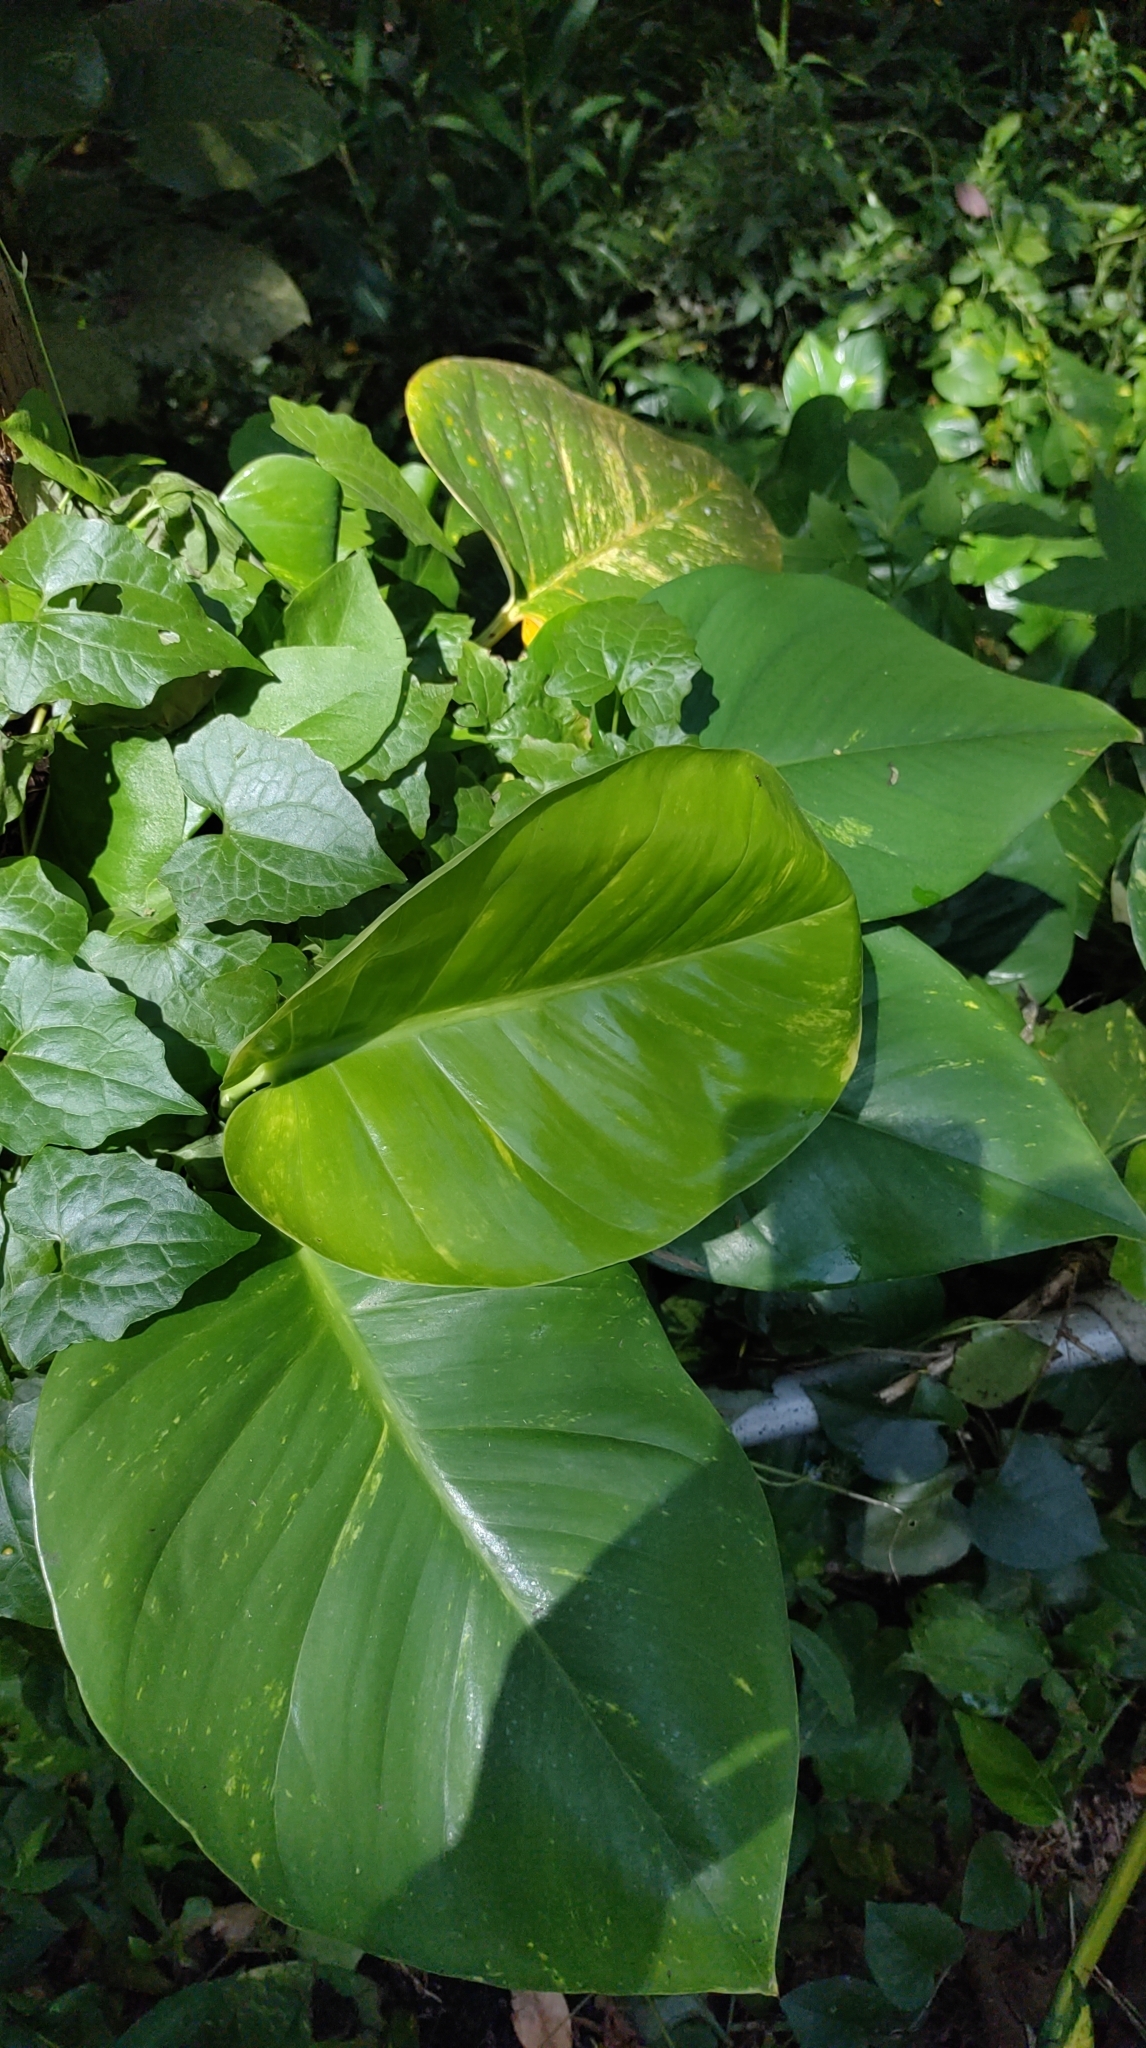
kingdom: Plantae
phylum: Tracheophyta
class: Liliopsida
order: Alismatales
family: Araceae
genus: Epipremnum
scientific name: Epipremnum aureum
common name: Golden hunter's-robe
